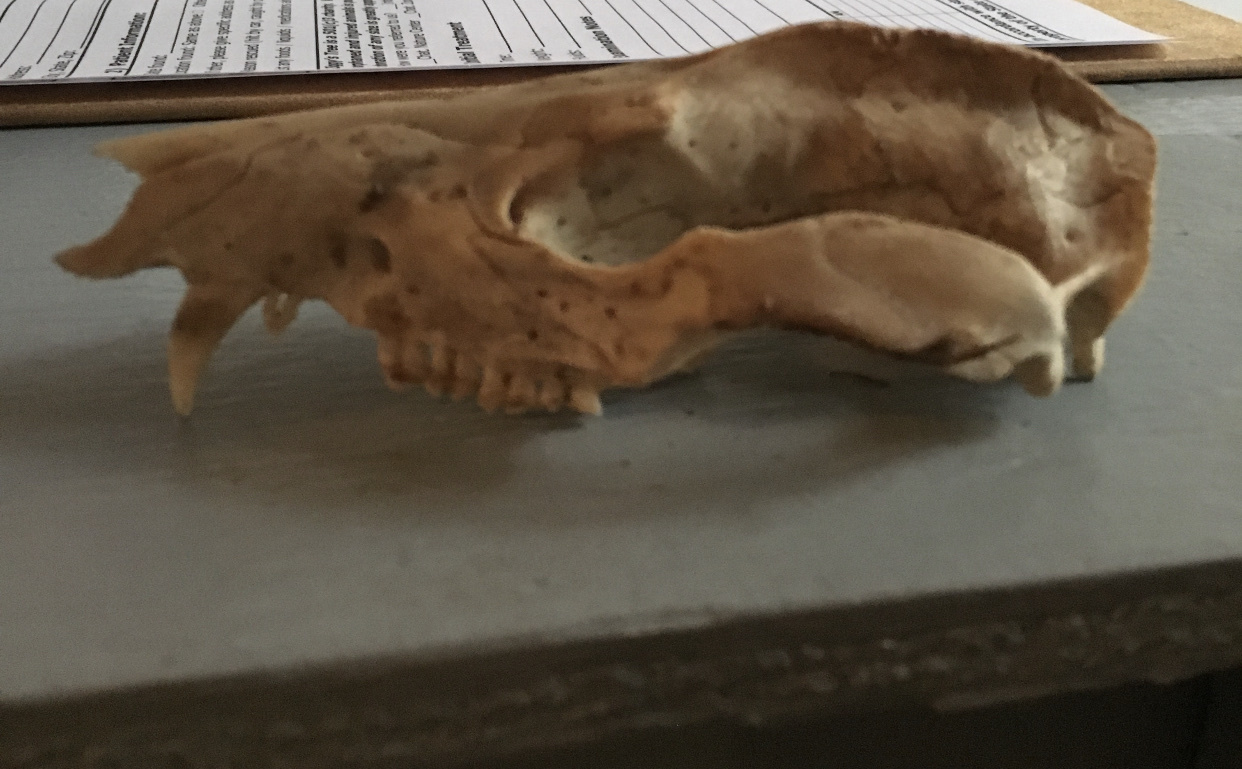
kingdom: Animalia
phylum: Chordata
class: Mammalia
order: Didelphimorphia
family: Didelphidae
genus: Didelphis
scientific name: Didelphis virginiana
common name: Virginia opossum
